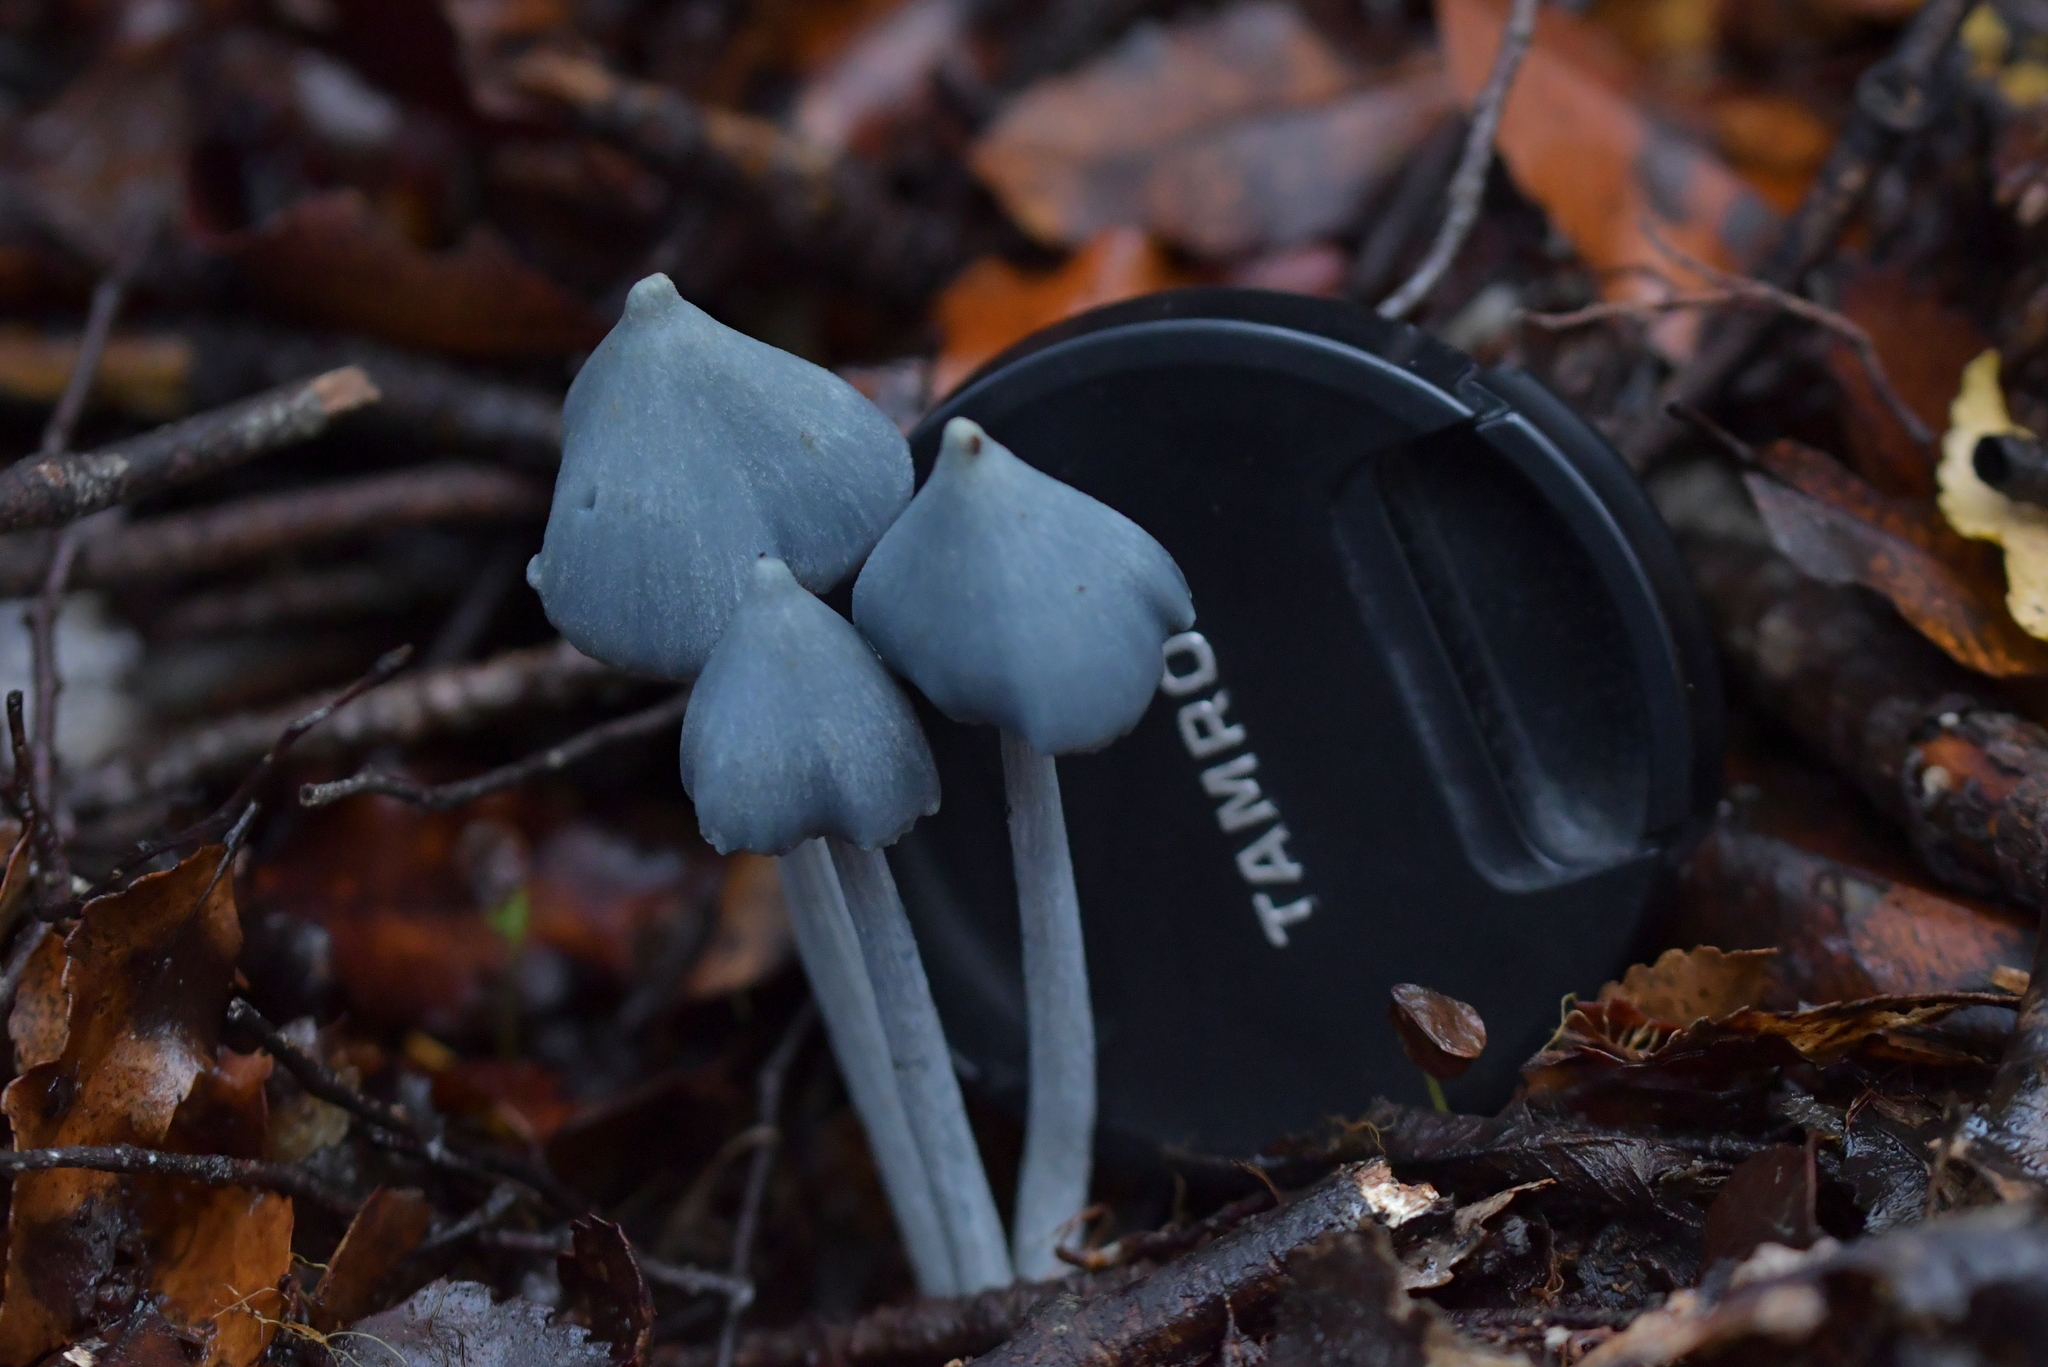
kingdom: Fungi
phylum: Basidiomycota
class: Agaricomycetes
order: Agaricales
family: Entolomataceae
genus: Entoloma
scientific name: Entoloma hochstetteri
